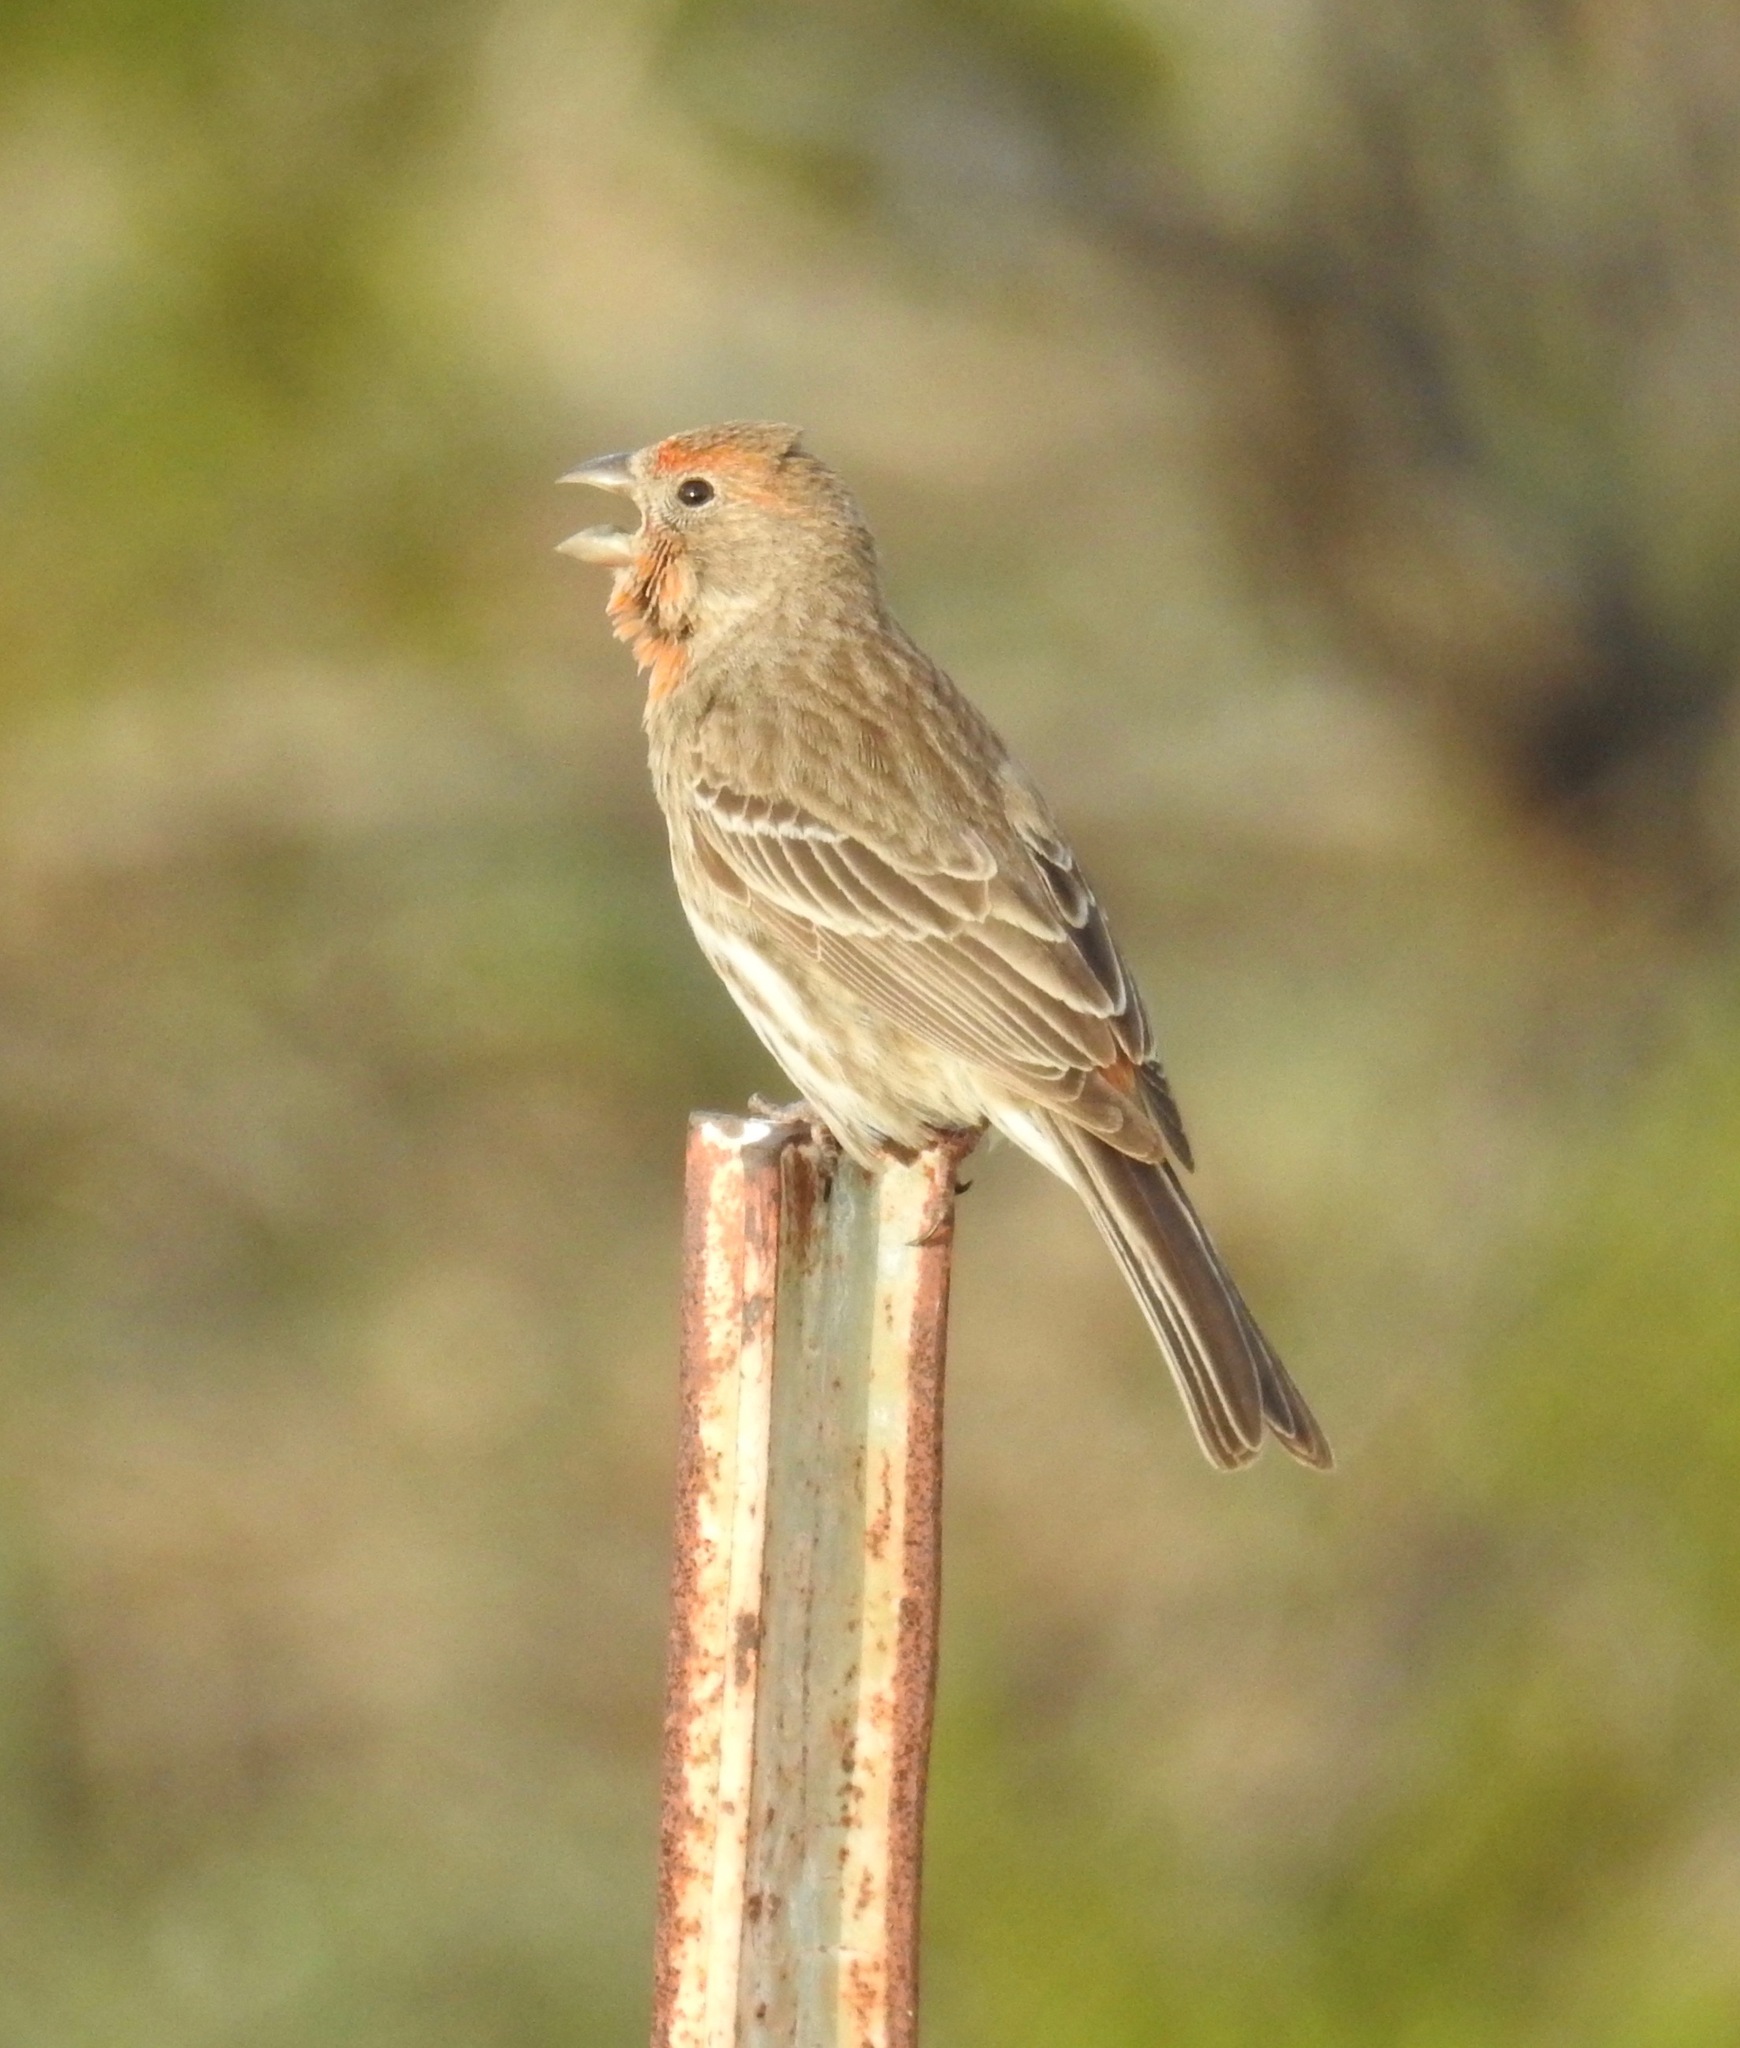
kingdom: Animalia
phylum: Chordata
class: Aves
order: Passeriformes
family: Fringillidae
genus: Haemorhous
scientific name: Haemorhous mexicanus
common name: House finch
